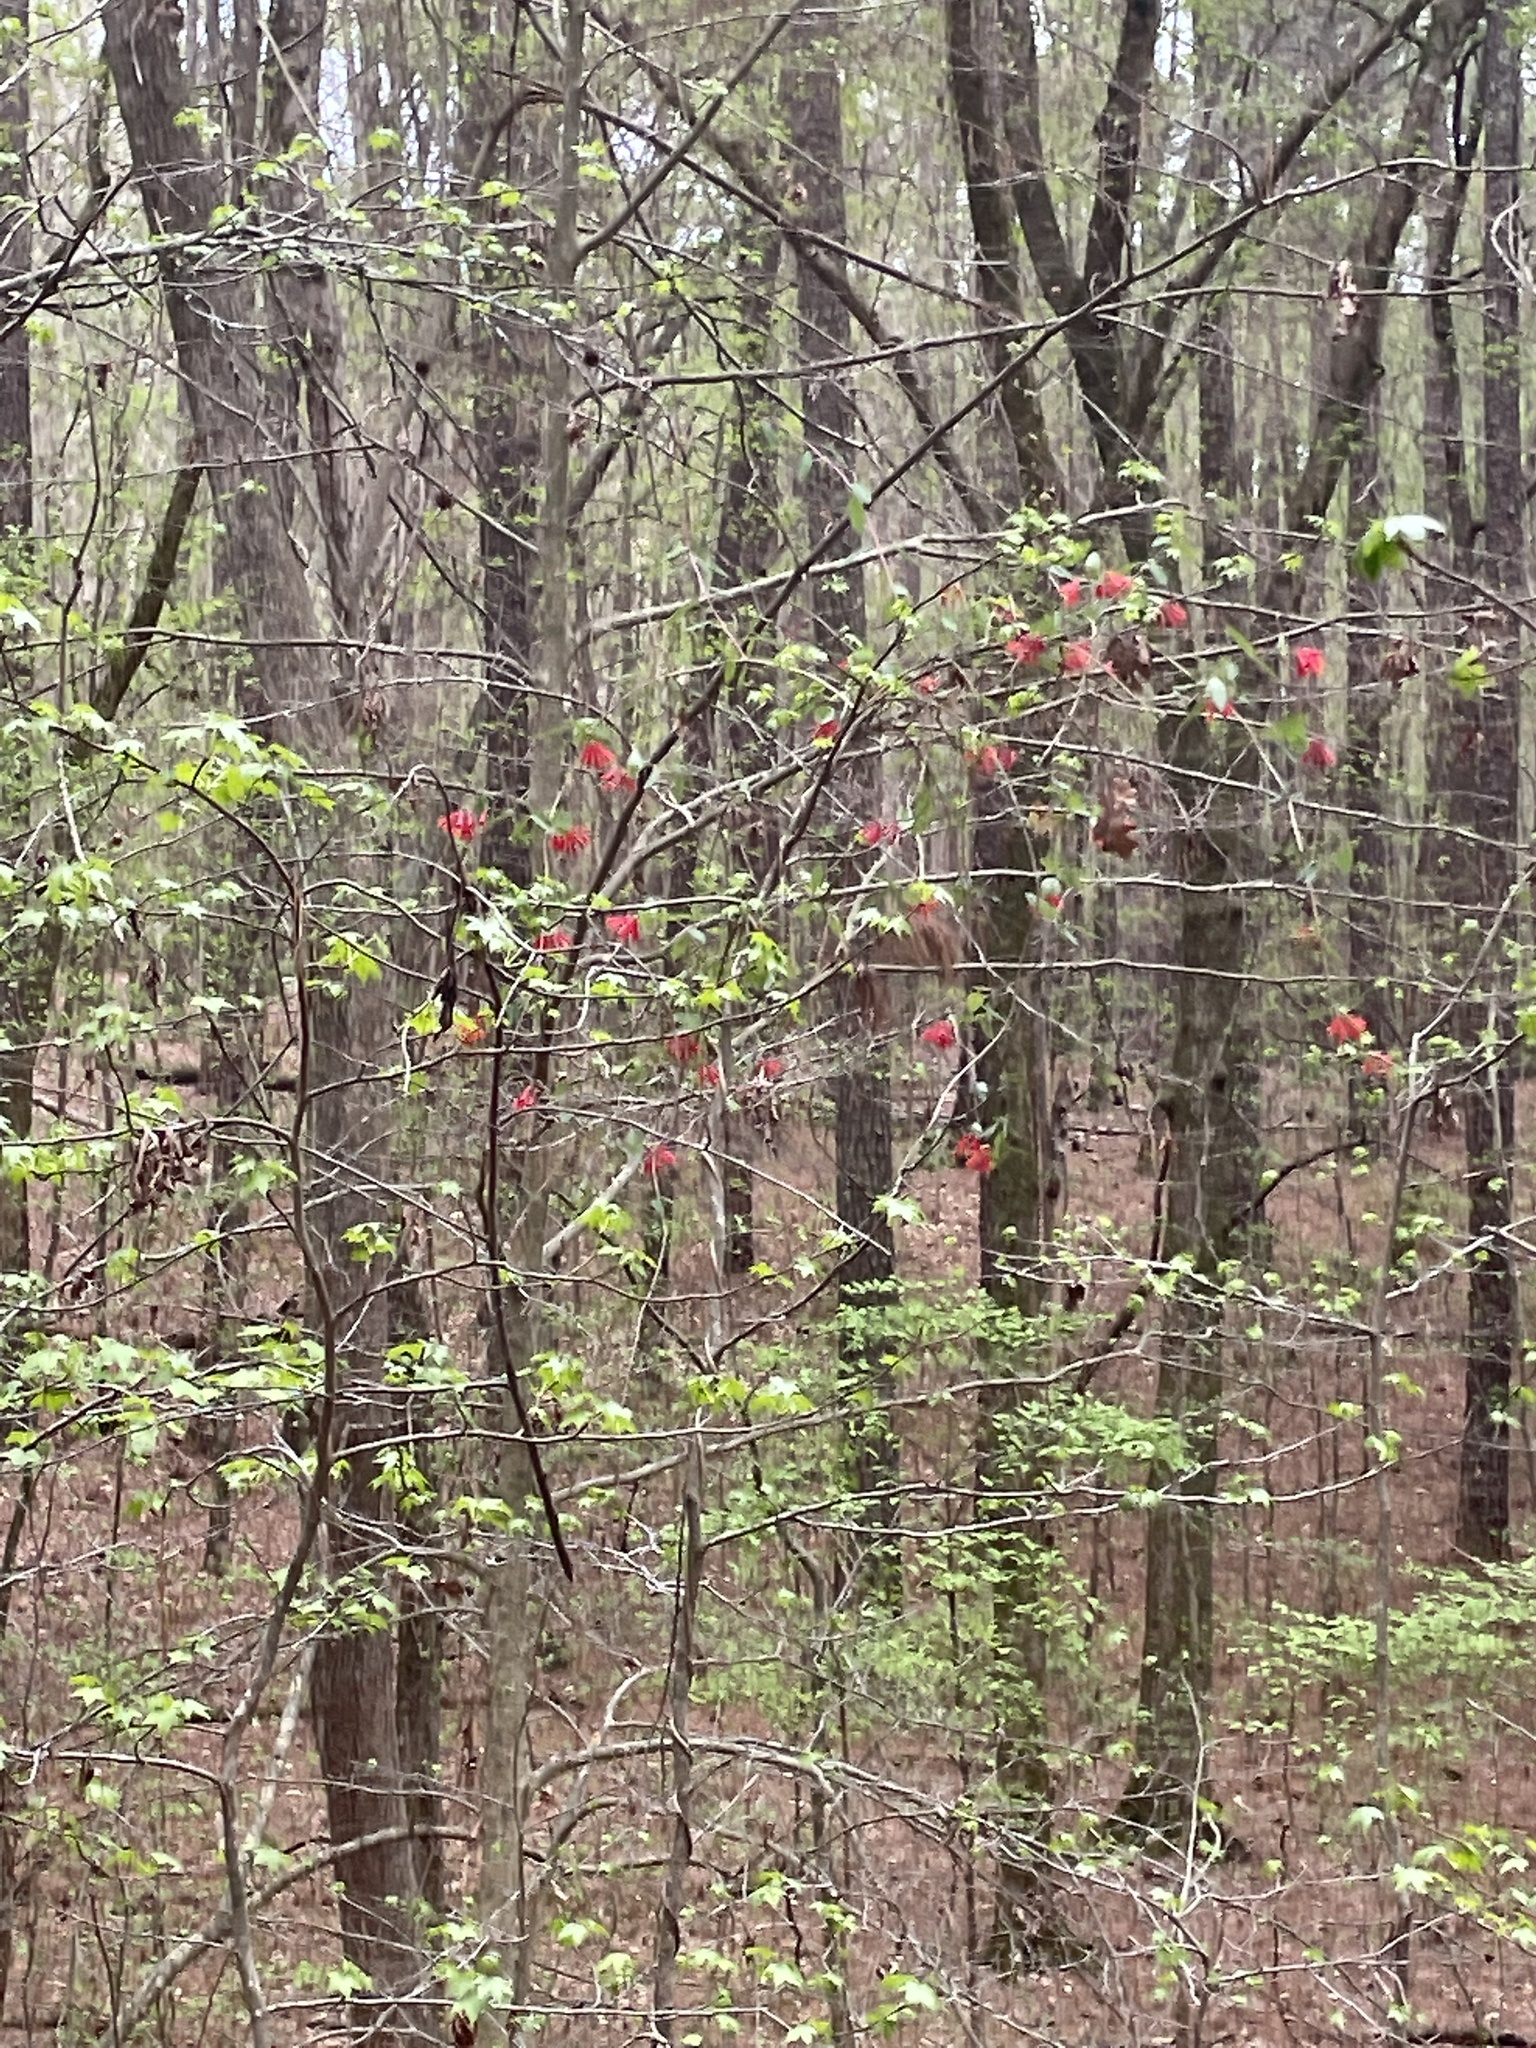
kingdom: Plantae
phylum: Tracheophyta
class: Magnoliopsida
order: Dipsacales
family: Caprifoliaceae
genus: Lonicera
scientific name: Lonicera sempervirens
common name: Coral honeysuckle
